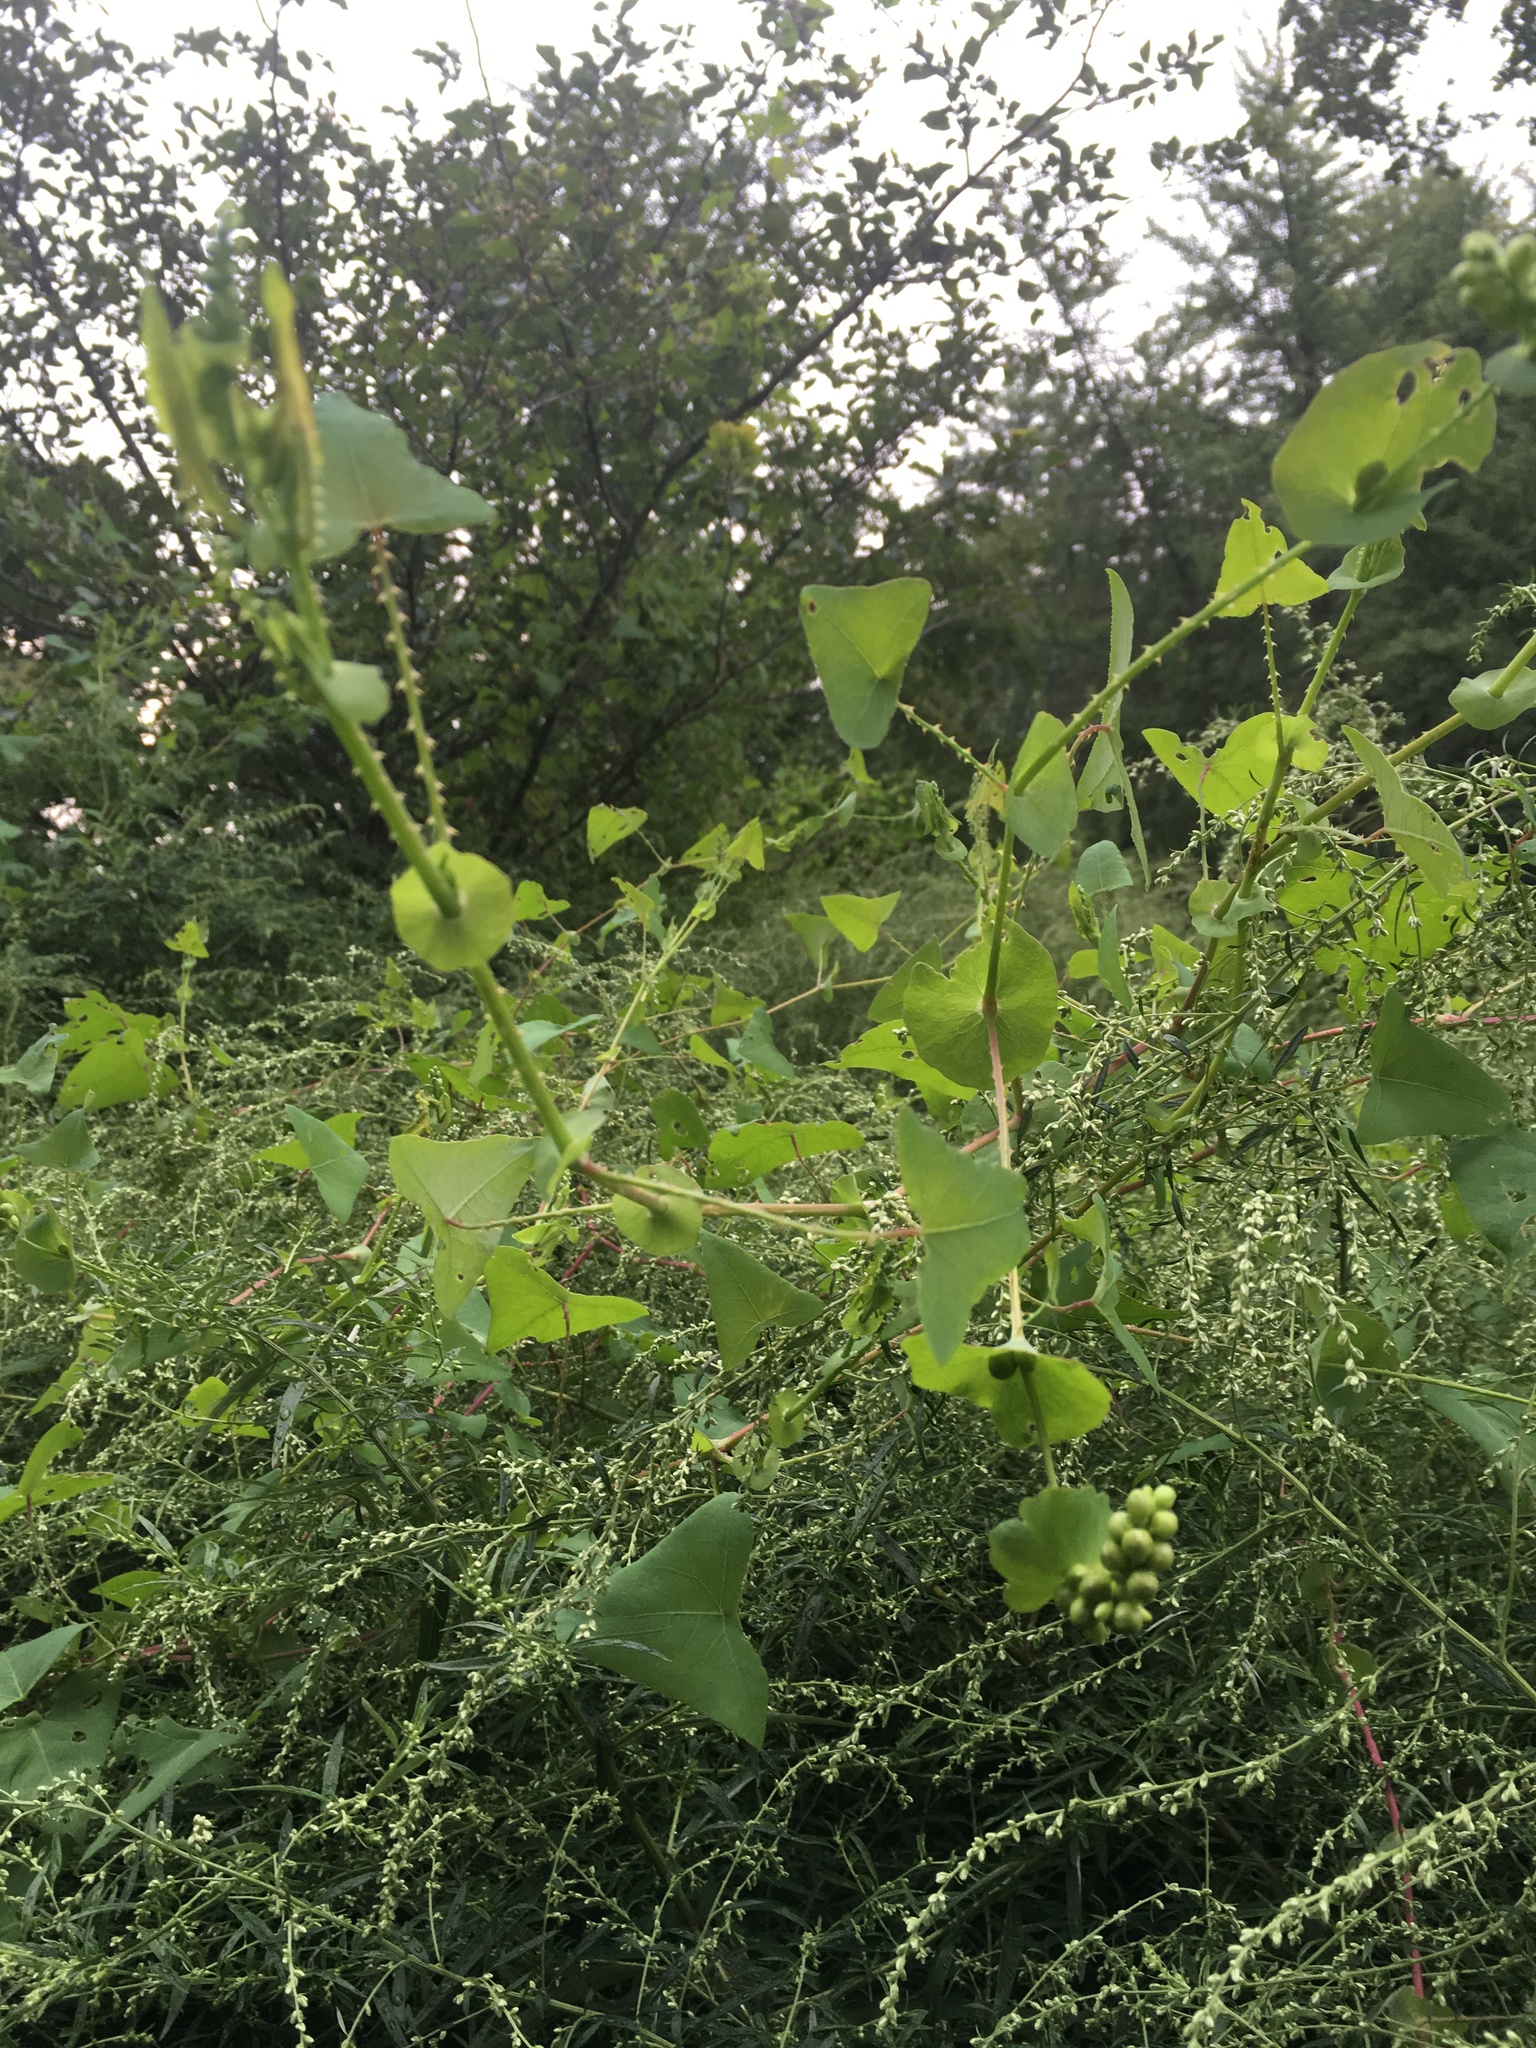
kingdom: Plantae
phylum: Tracheophyta
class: Magnoliopsida
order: Caryophyllales
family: Polygonaceae
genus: Persicaria
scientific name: Persicaria perfoliata
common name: Asiatic tearthumb
